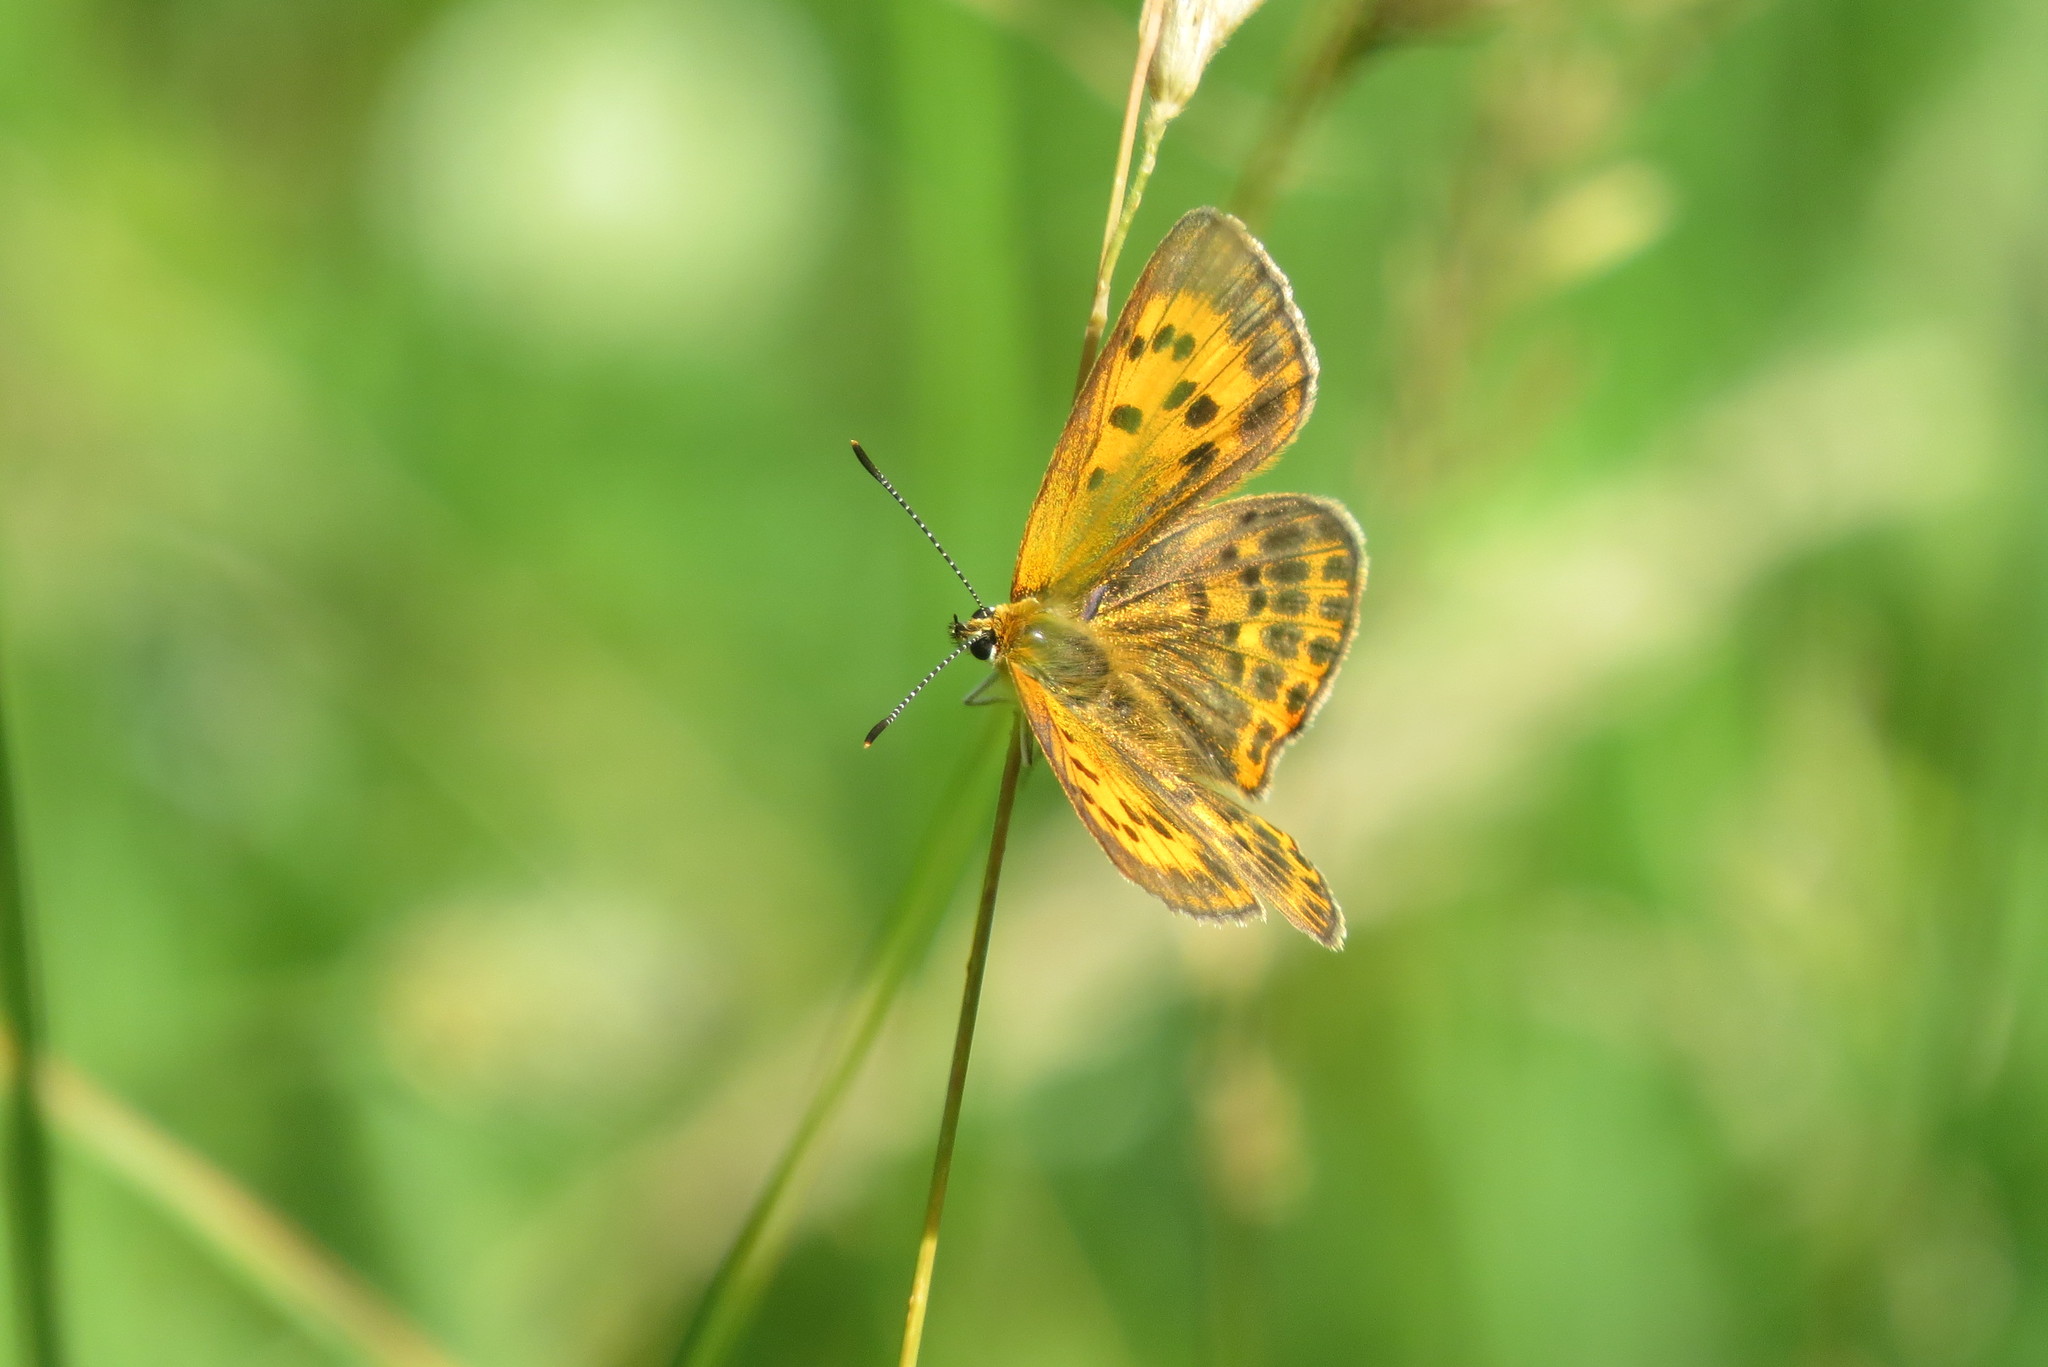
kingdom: Animalia
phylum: Arthropoda
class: Insecta
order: Lepidoptera
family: Lycaenidae
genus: Lycaena
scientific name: Lycaena virgaureae
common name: Scarce copper
